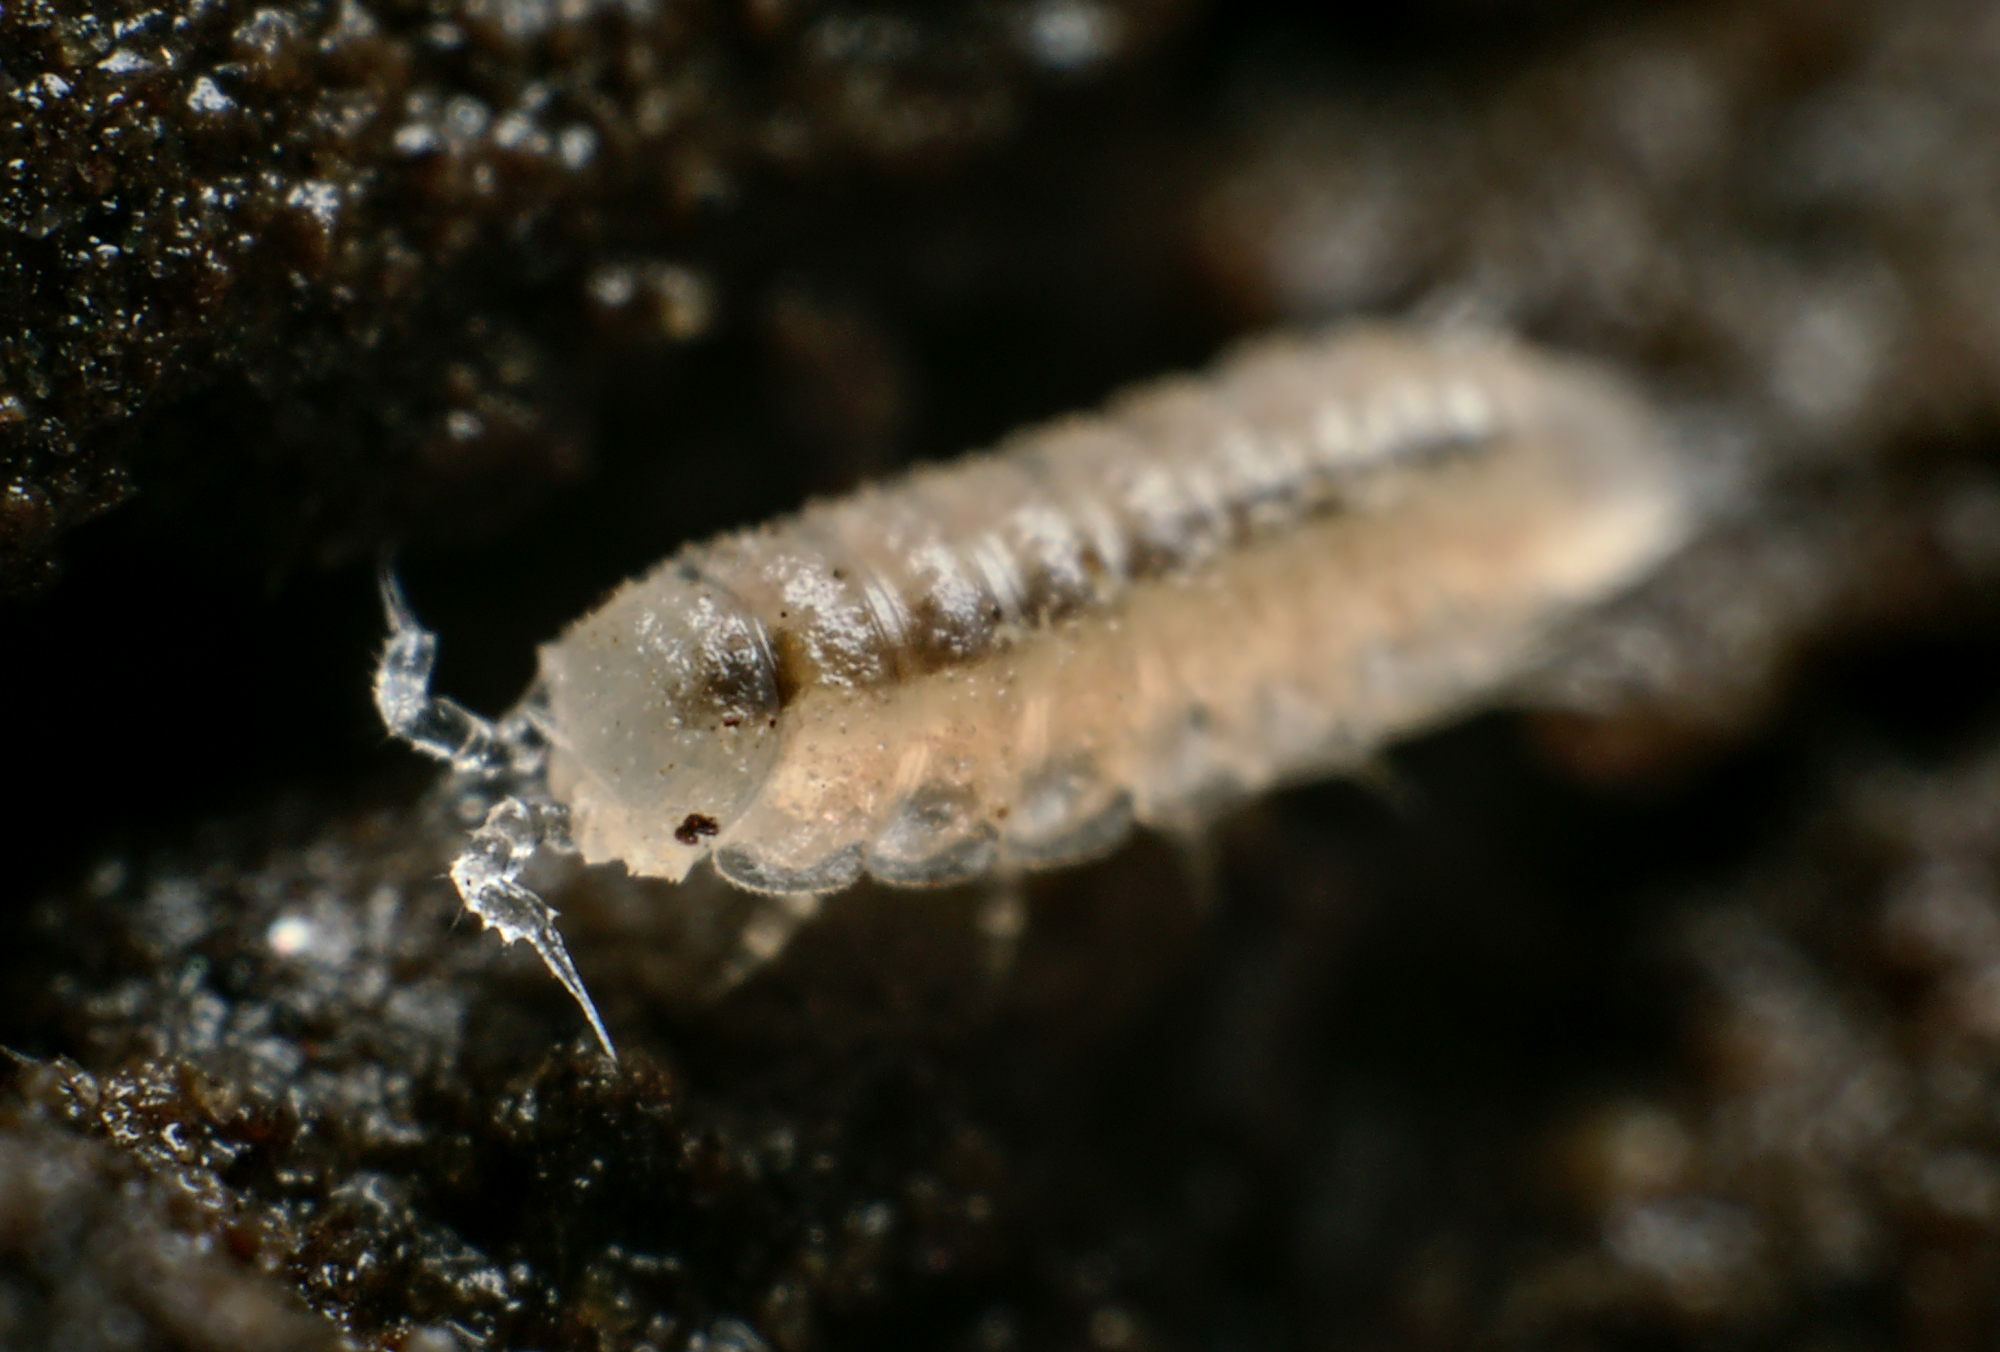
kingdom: Animalia
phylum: Arthropoda
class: Malacostraca
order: Isopoda
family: Trichoniscidae
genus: Trichoniscus
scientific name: Trichoniscus pygmaeus
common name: Isopod
